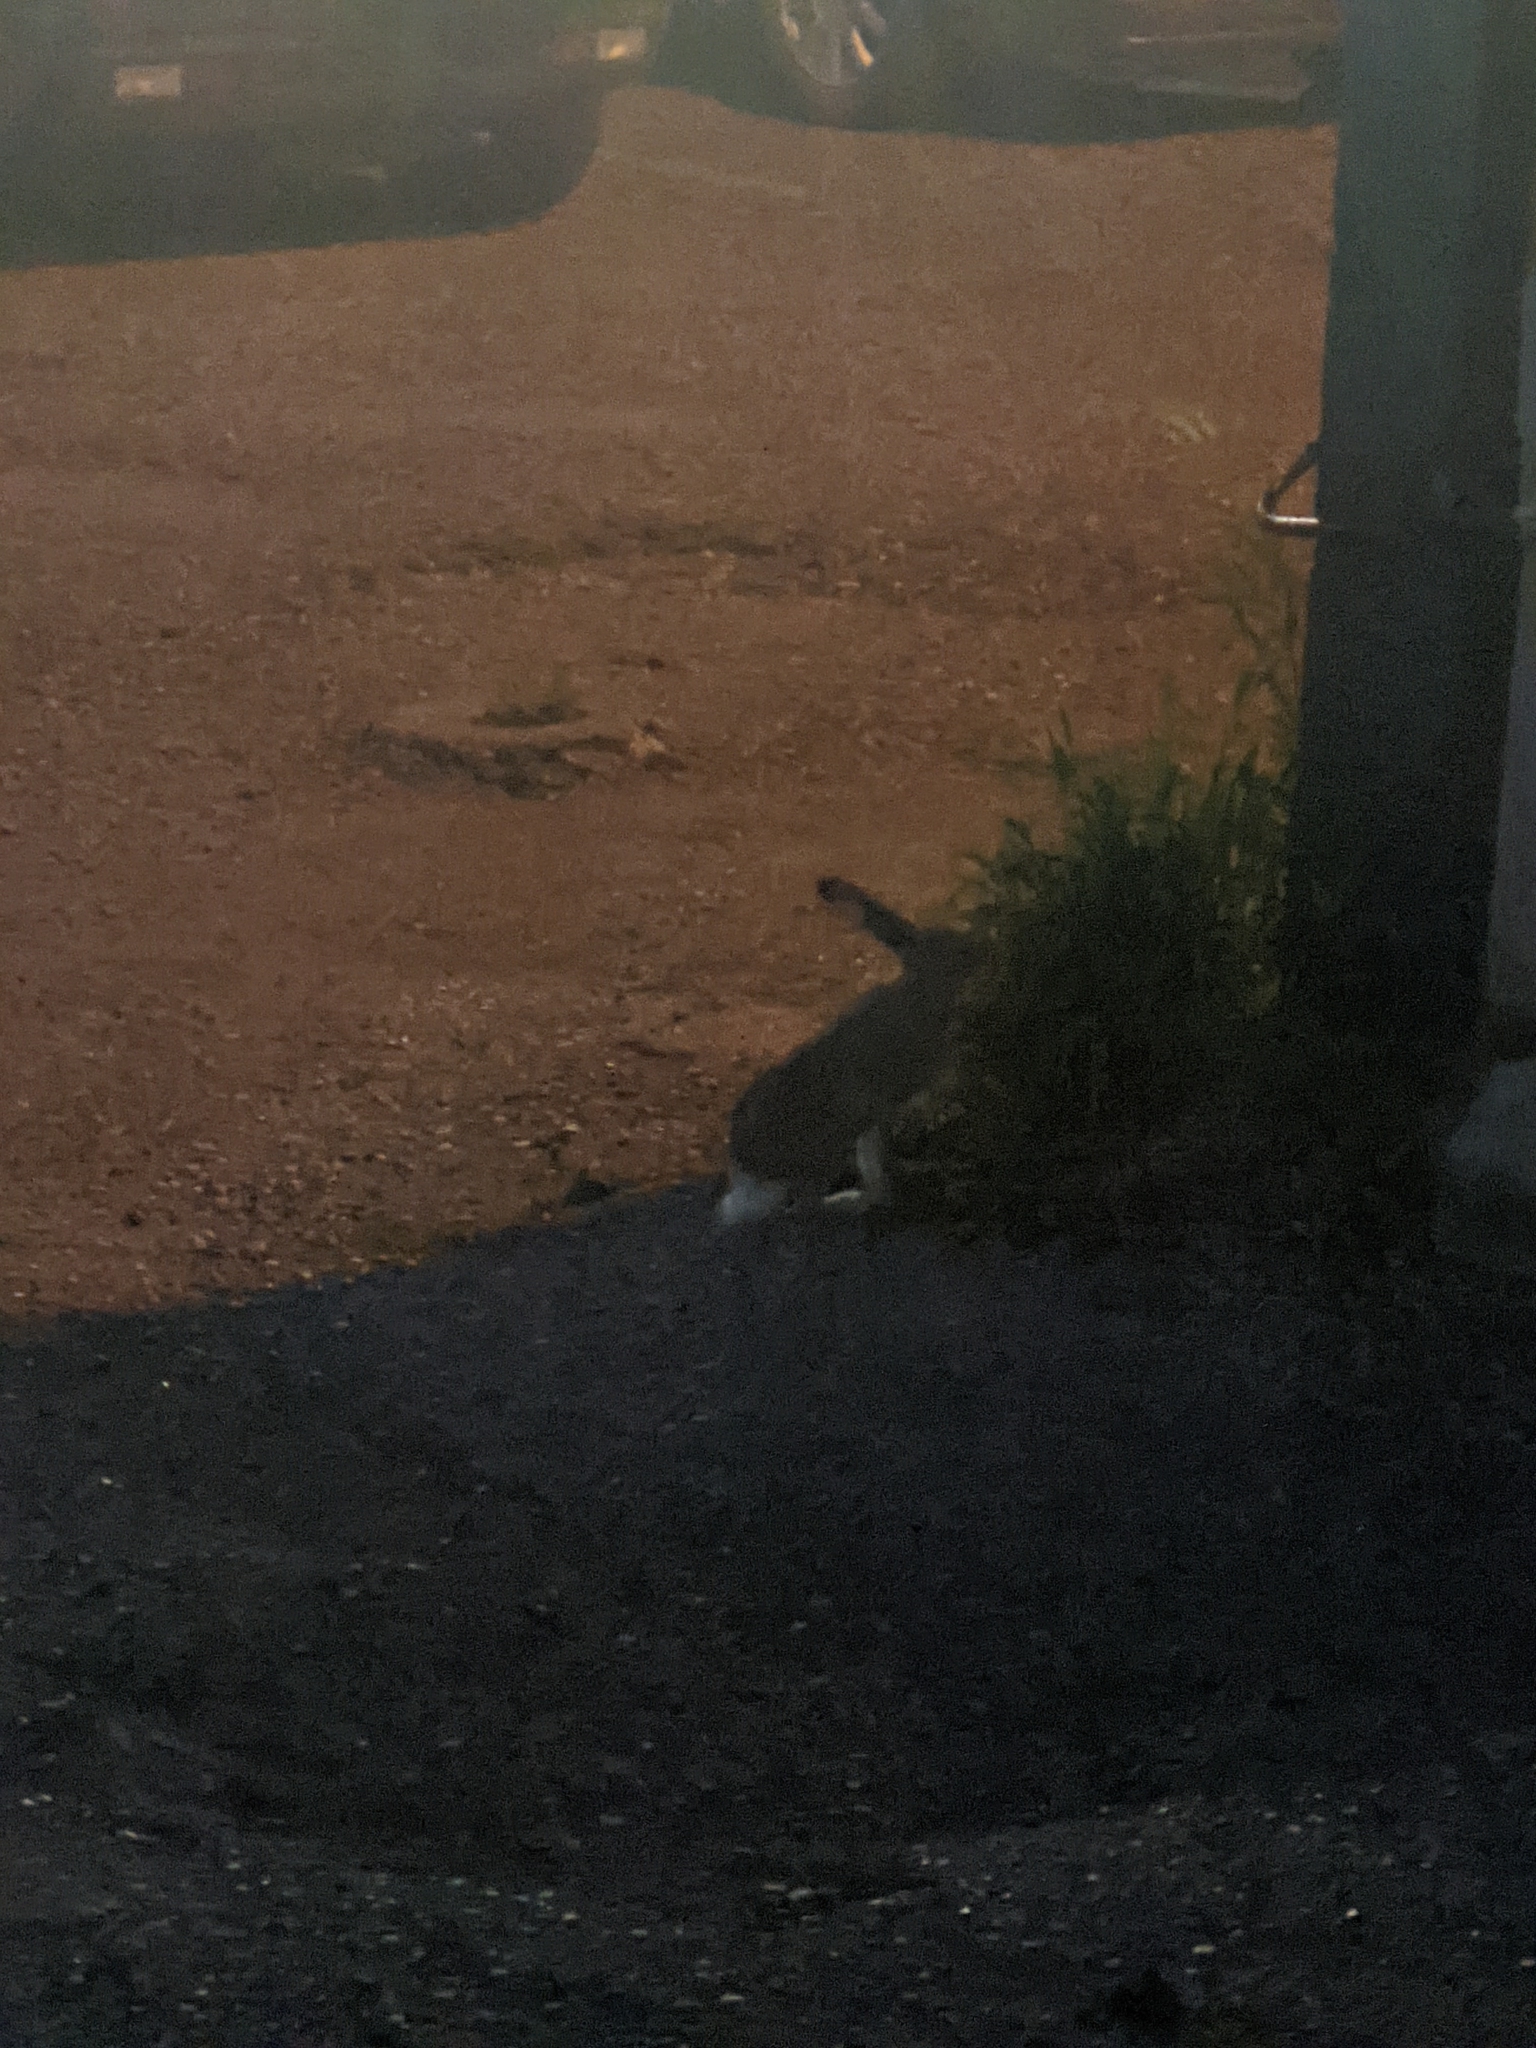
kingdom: Animalia
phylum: Chordata
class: Mammalia
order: Lagomorpha
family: Leporidae
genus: Lepus
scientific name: Lepus townsendii
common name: White-tailed jackrabbit
